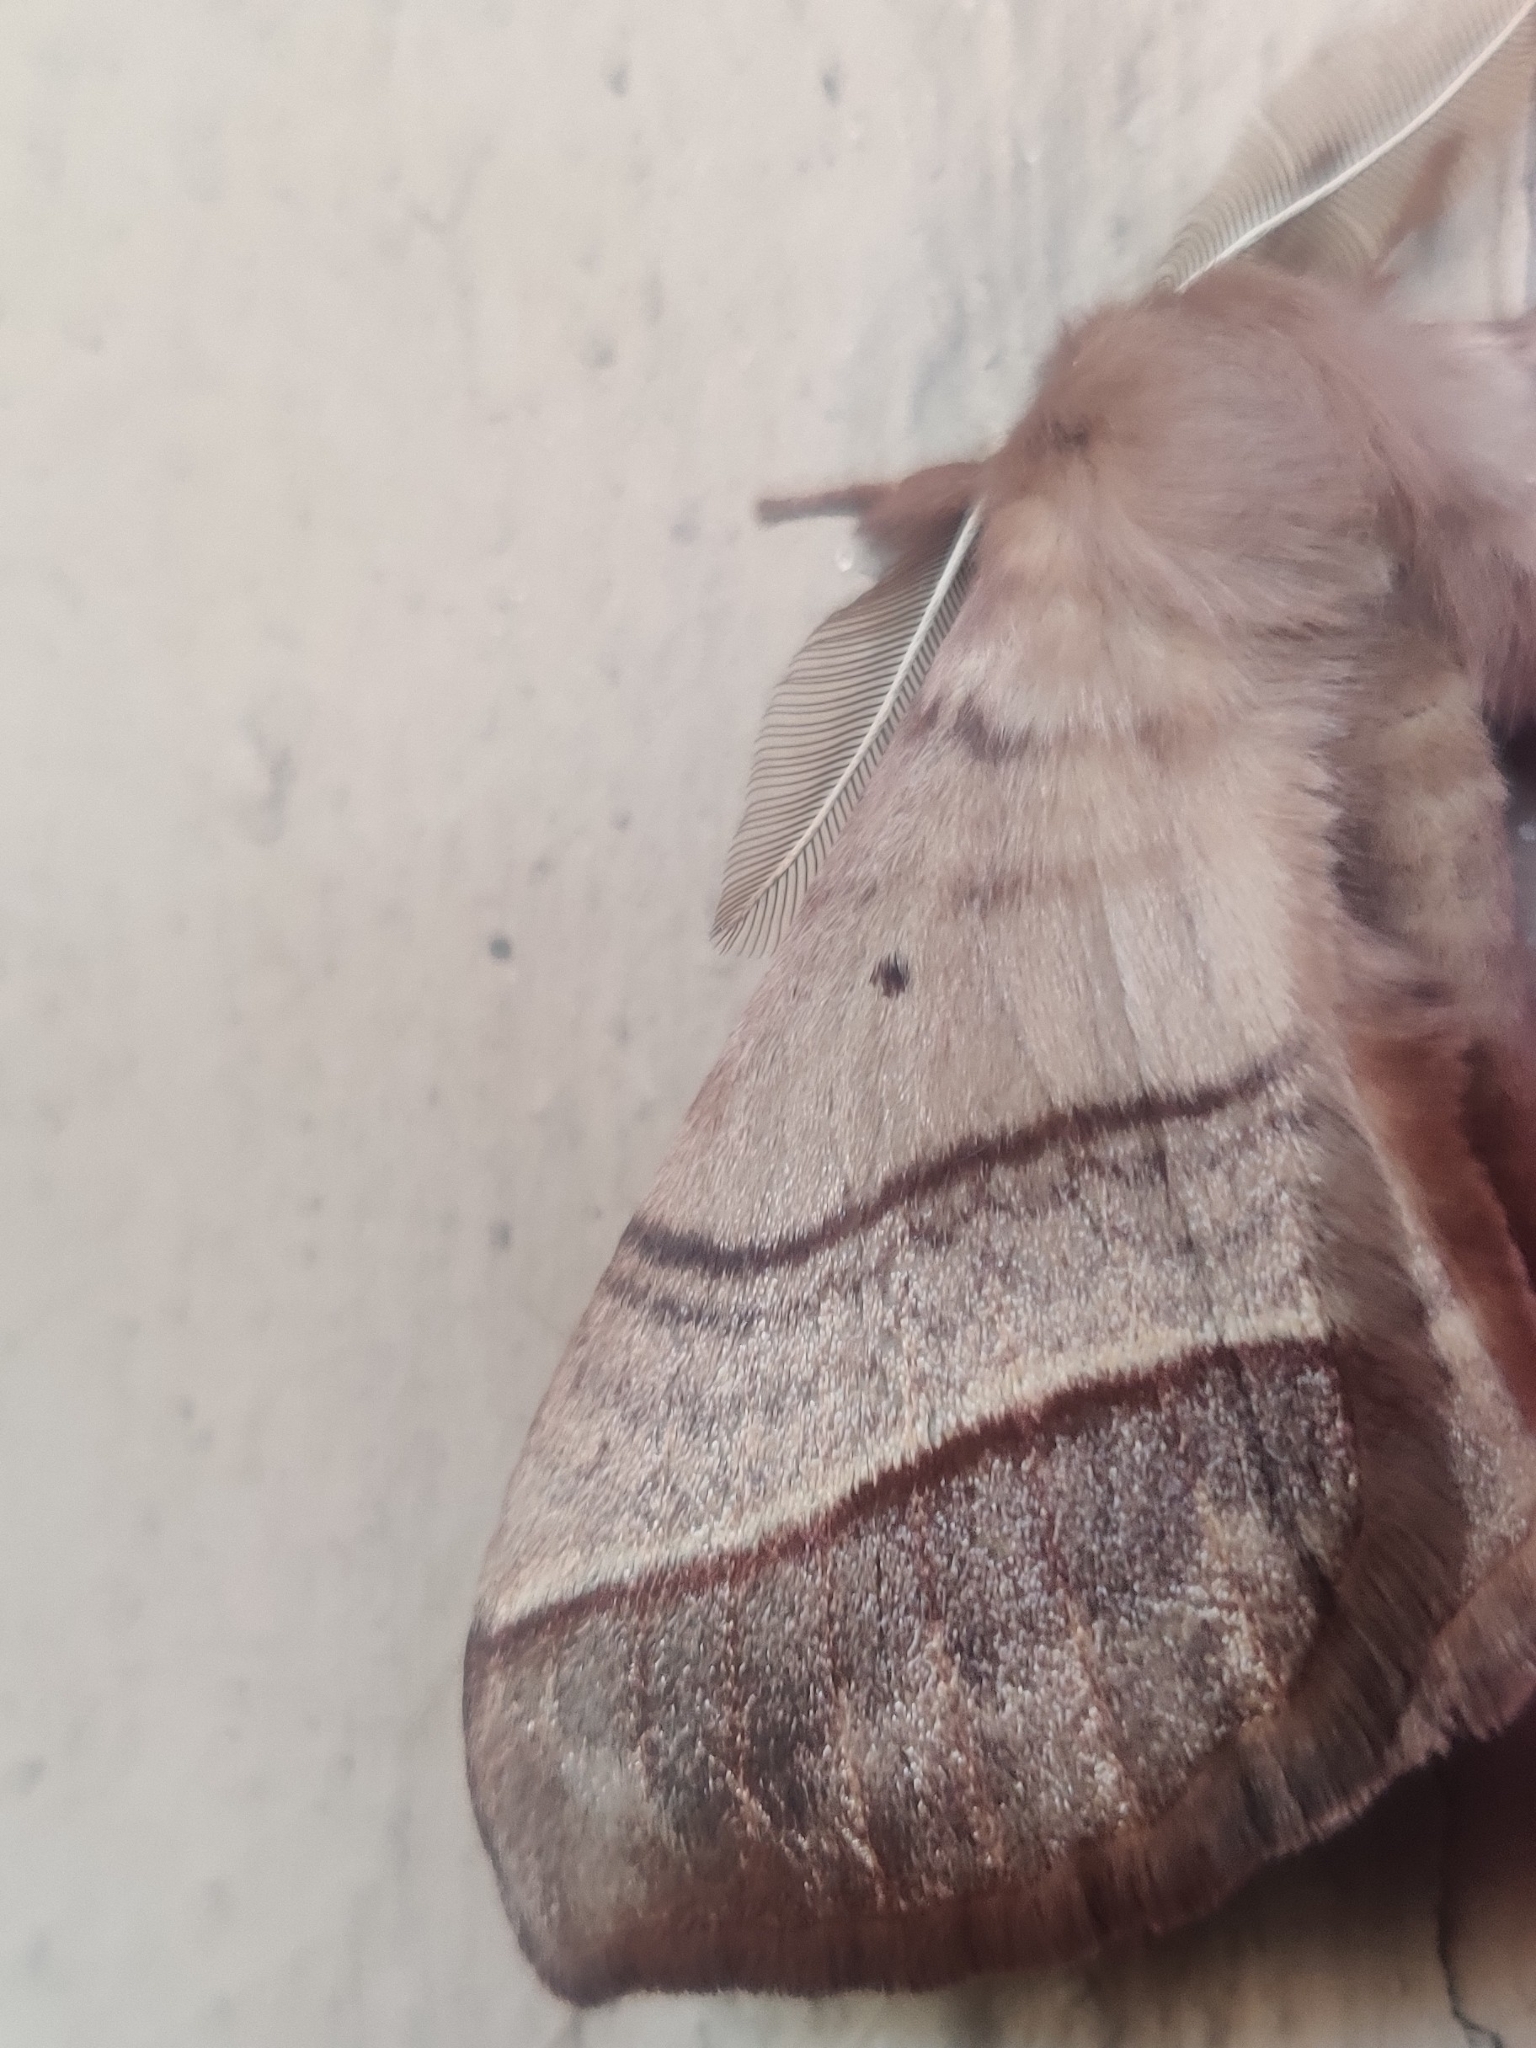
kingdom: Animalia
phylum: Arthropoda
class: Insecta
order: Lepidoptera
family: Eupterotidae
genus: Apona
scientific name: Apona caschmirensis
